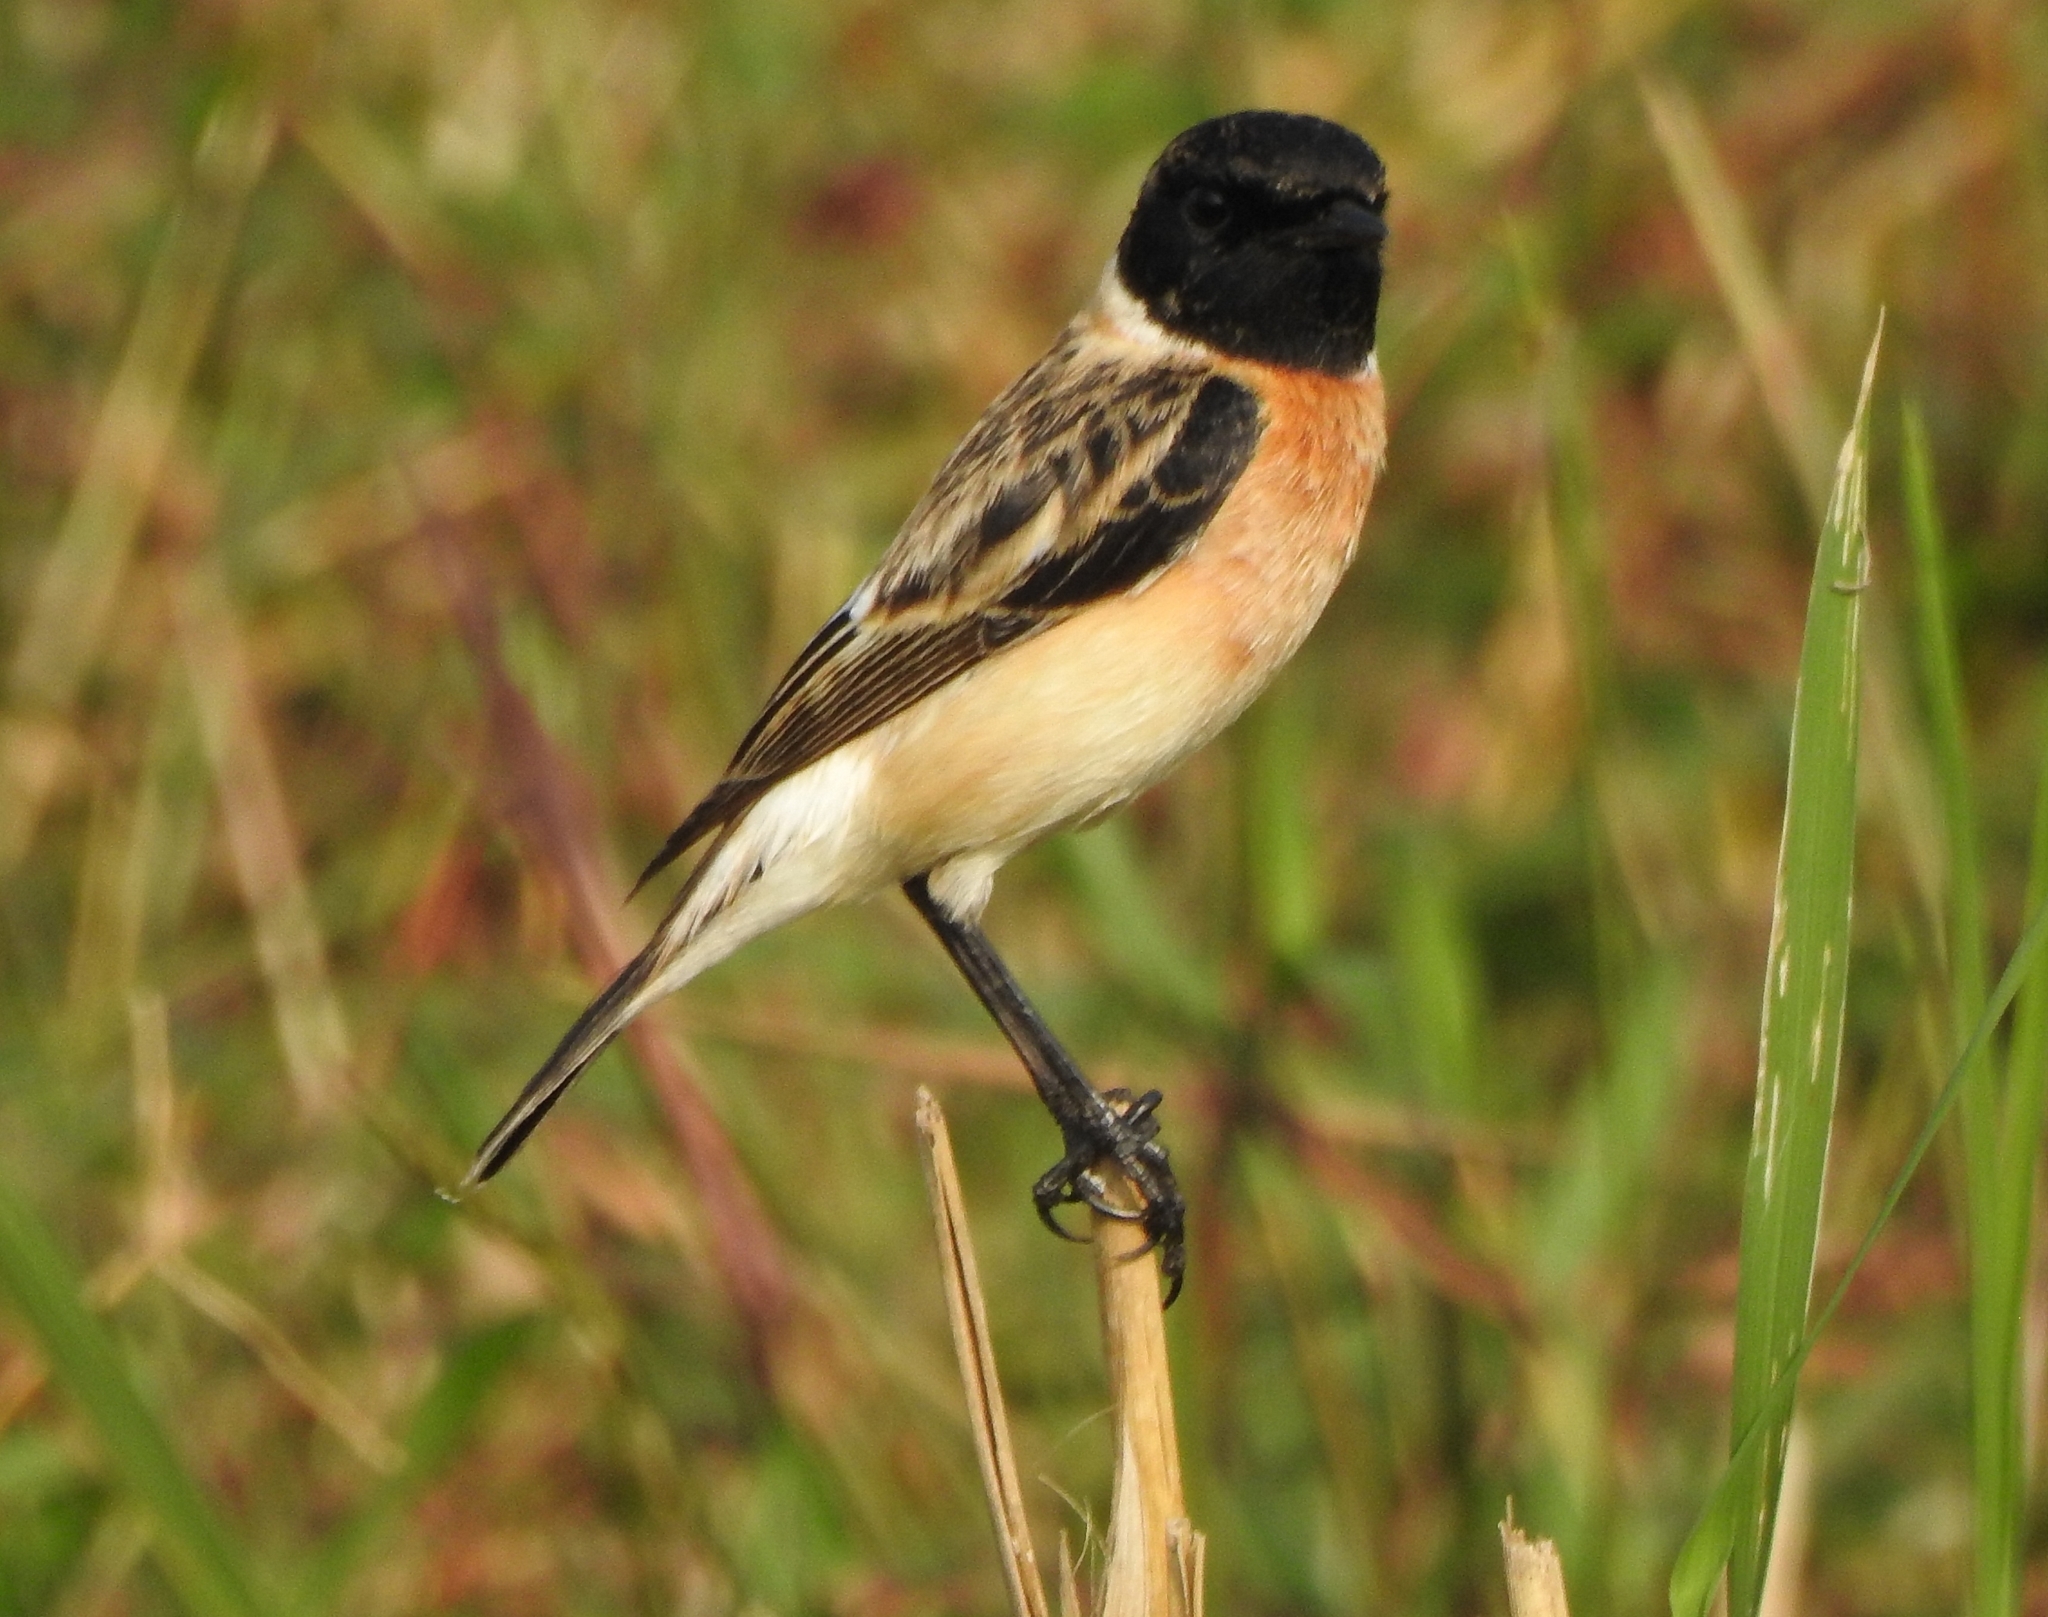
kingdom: Animalia
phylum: Chordata
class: Aves
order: Passeriformes
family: Muscicapidae
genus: Saxicola
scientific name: Saxicola maurus
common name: Siberian stonechat
